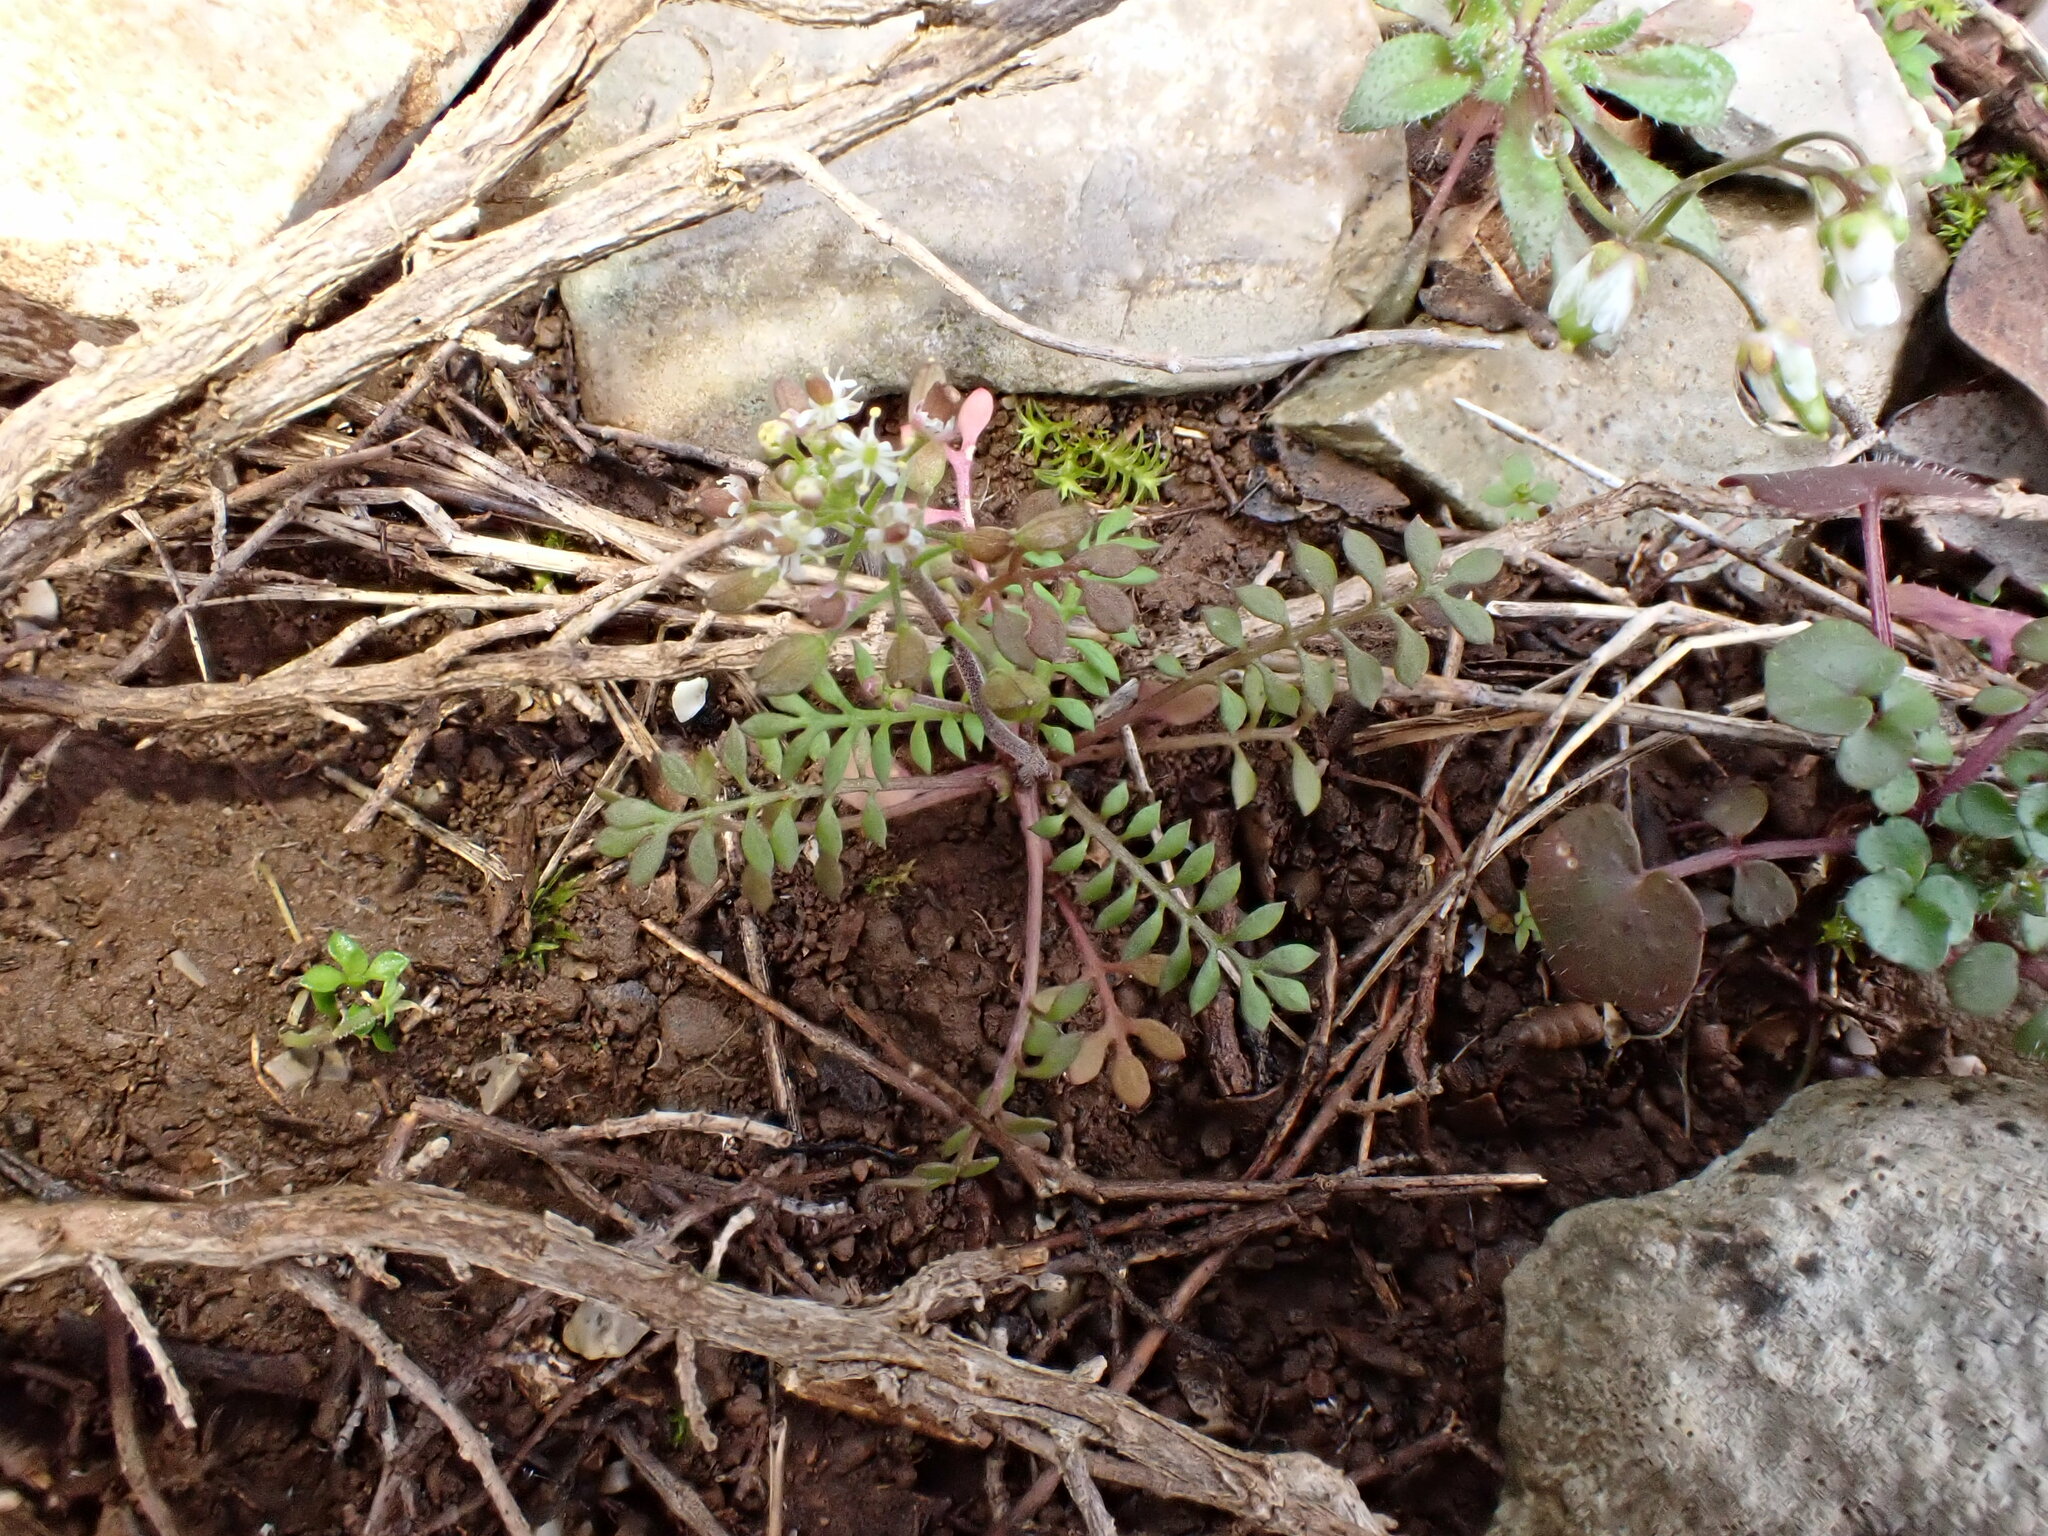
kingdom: Plantae
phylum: Tracheophyta
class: Magnoliopsida
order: Brassicales
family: Brassicaceae
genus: Hornungia
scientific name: Hornungia petraea
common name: Hutchinsia
